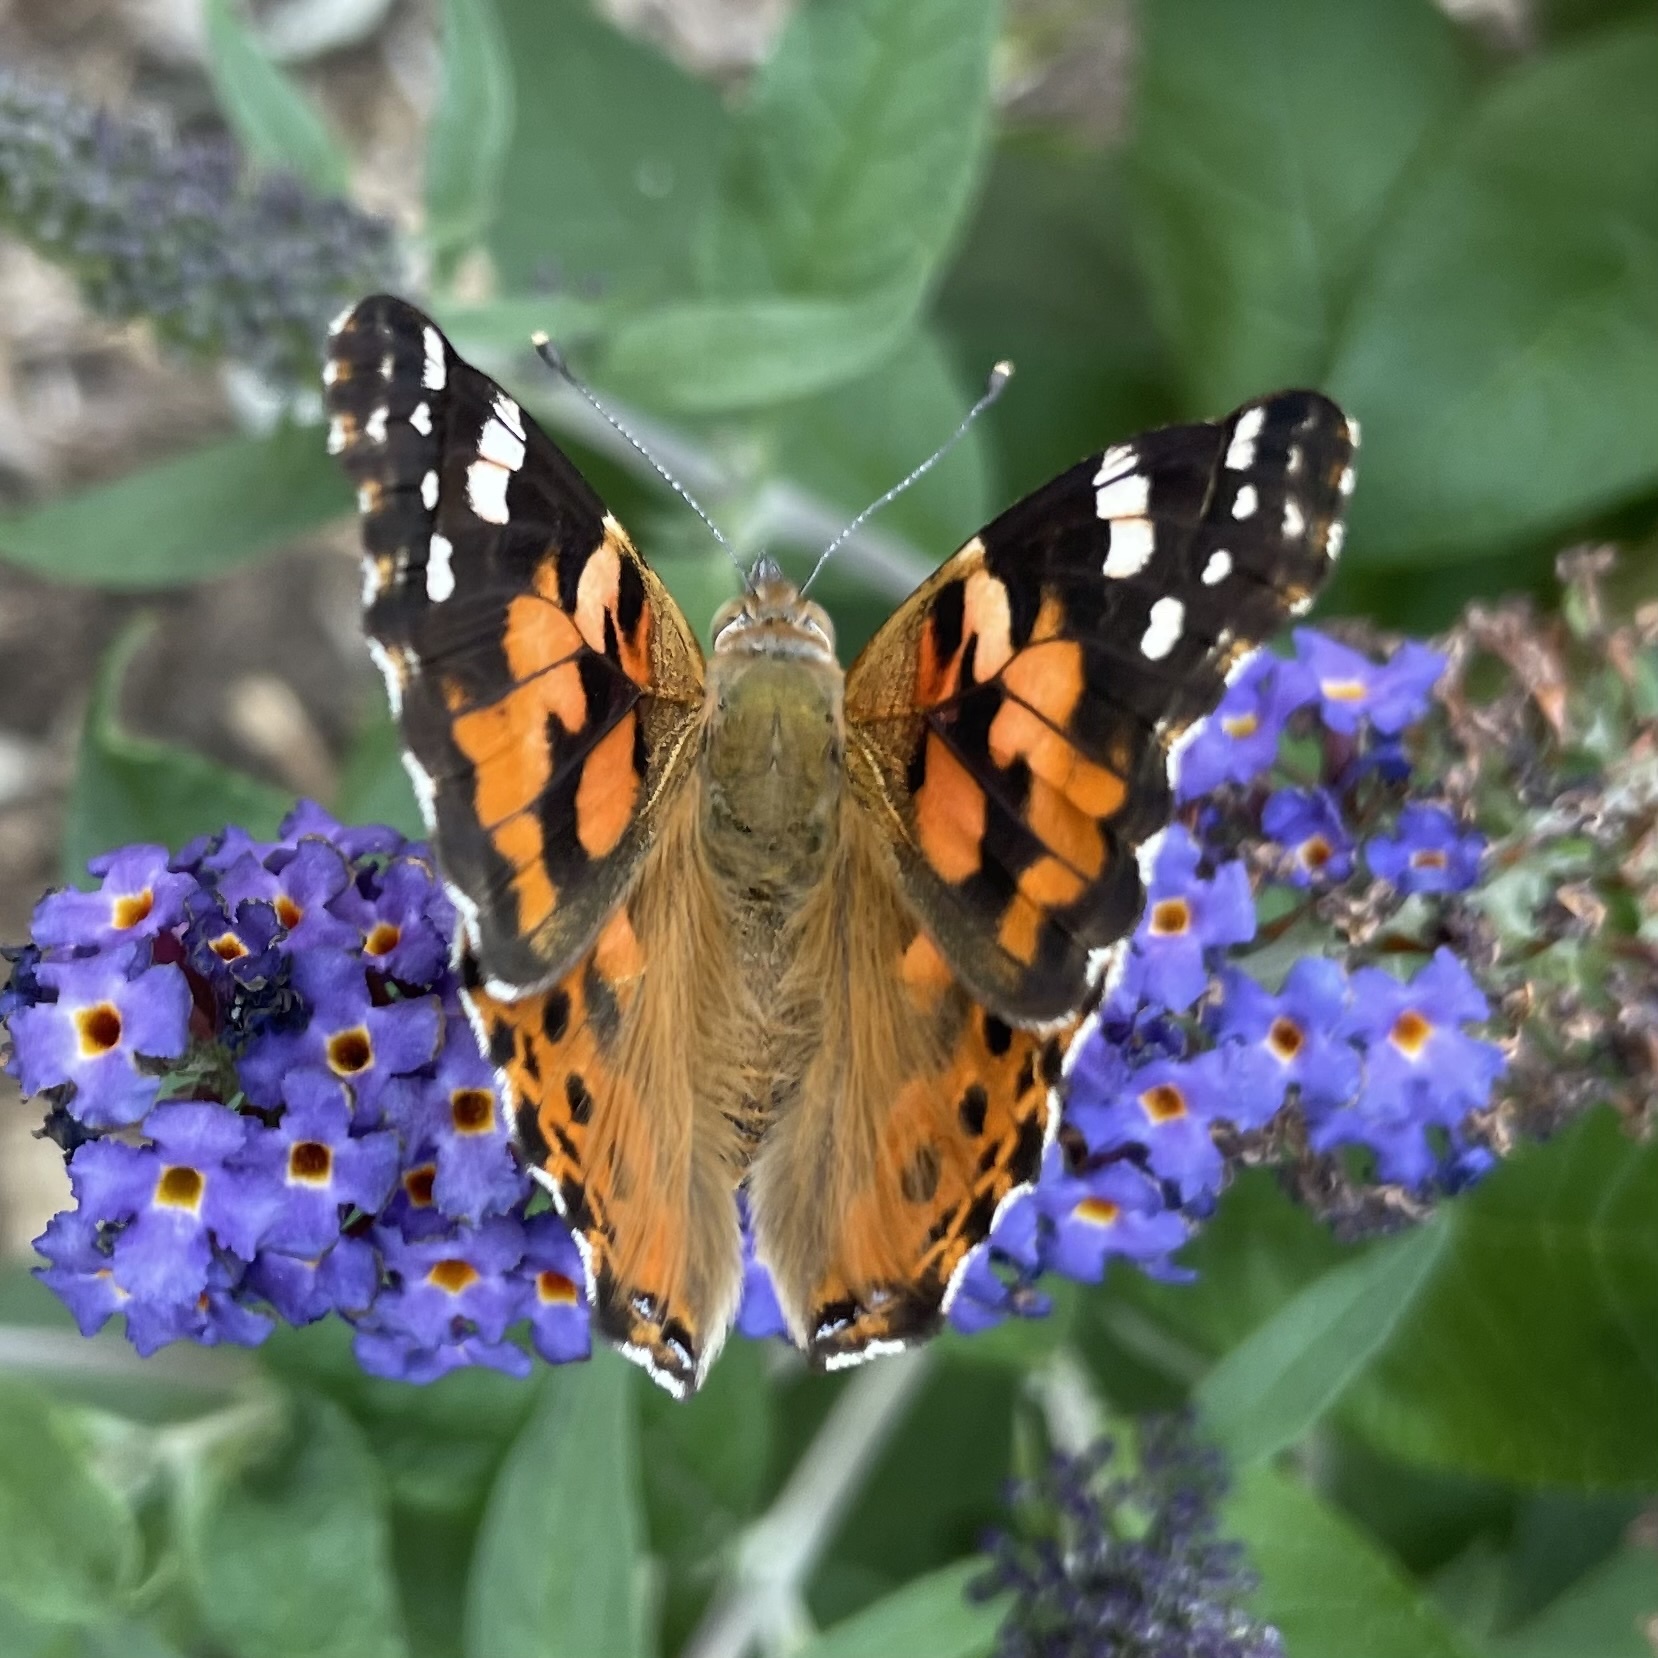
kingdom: Animalia
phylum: Arthropoda
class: Insecta
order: Lepidoptera
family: Nymphalidae
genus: Vanessa
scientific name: Vanessa cardui
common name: Painted lady
